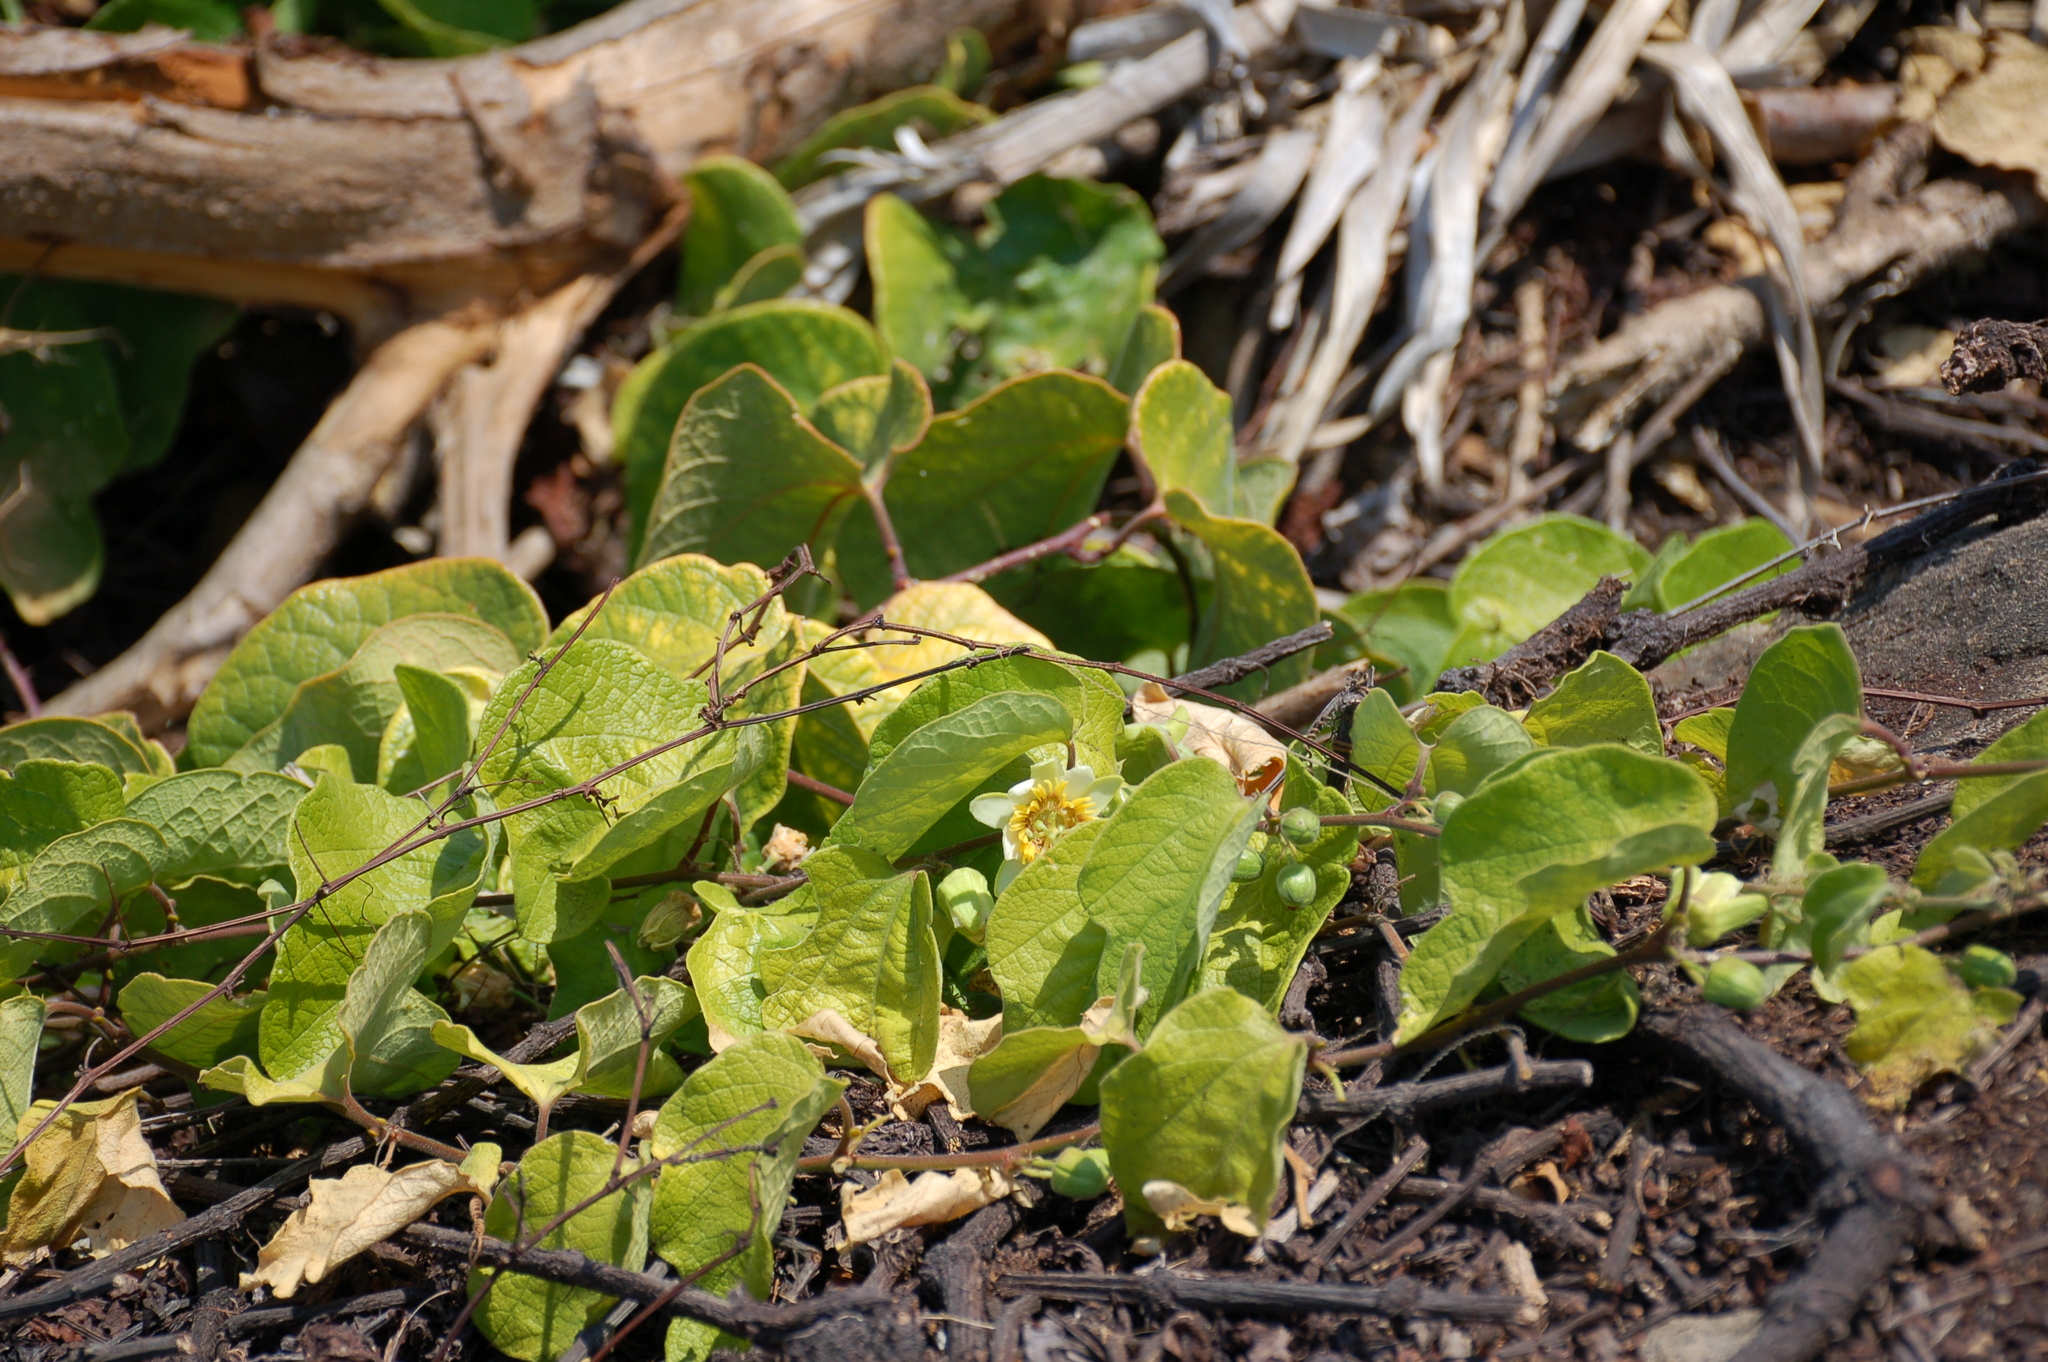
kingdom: Plantae
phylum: Tracheophyta
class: Magnoliopsida
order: Malpighiales
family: Passifloraceae
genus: Passiflora
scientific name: Passiflora holosericea
